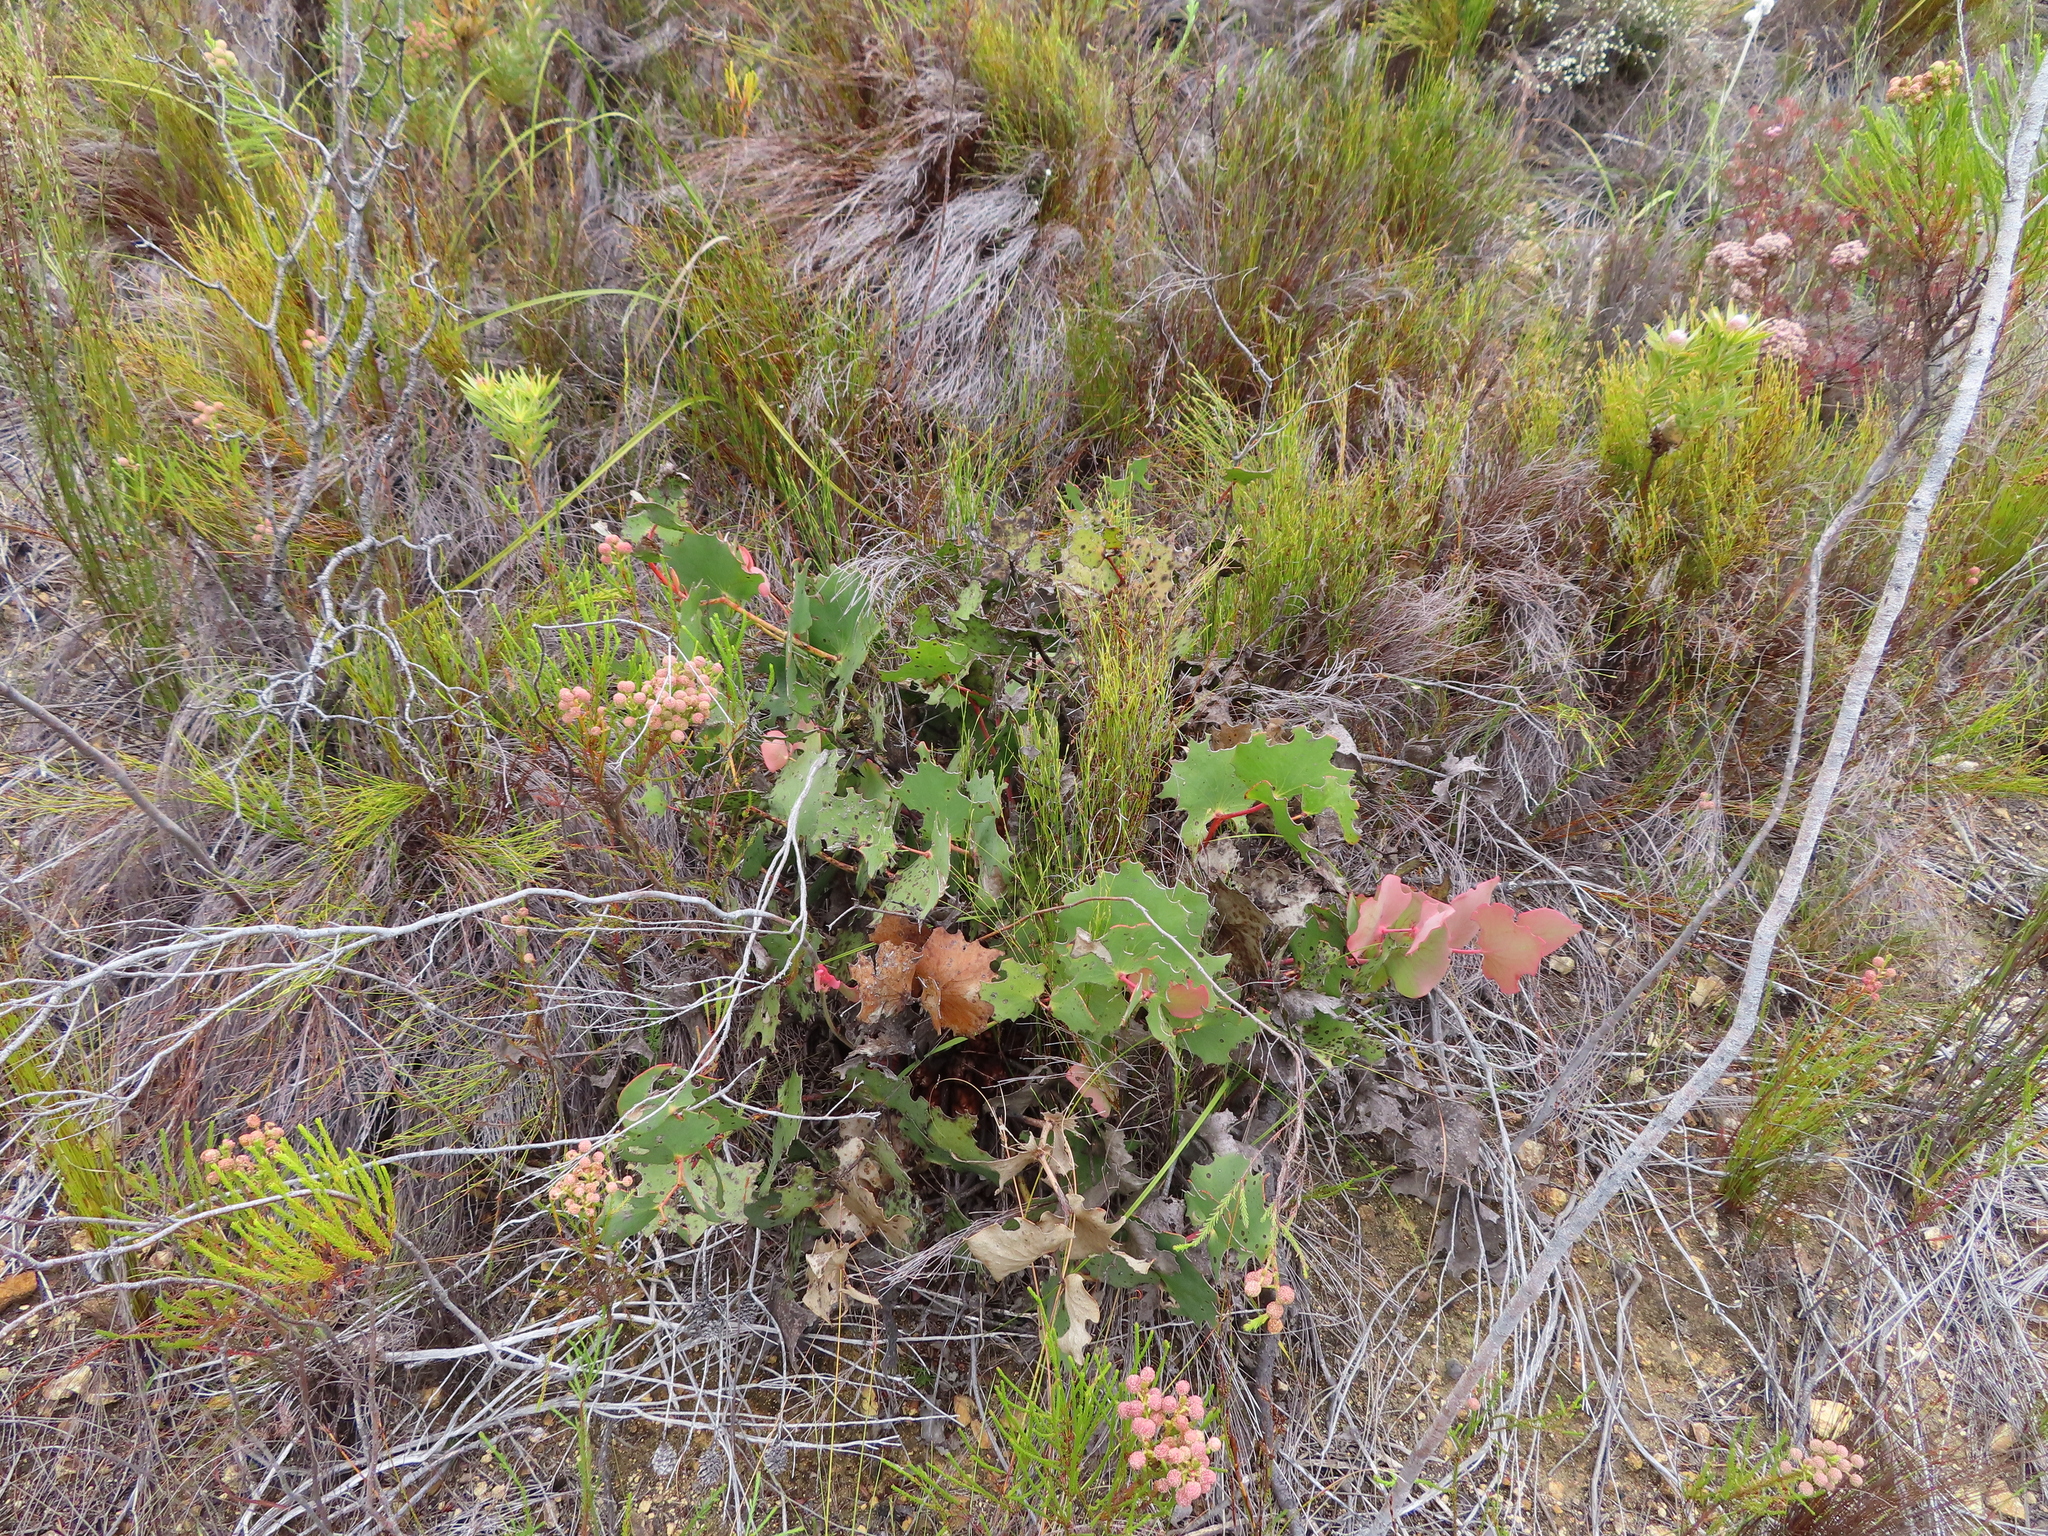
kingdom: Plantae
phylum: Tracheophyta
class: Magnoliopsida
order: Proteales
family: Proteaceae
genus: Protea
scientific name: Protea cordata
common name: Heart-leaf sugarbush
